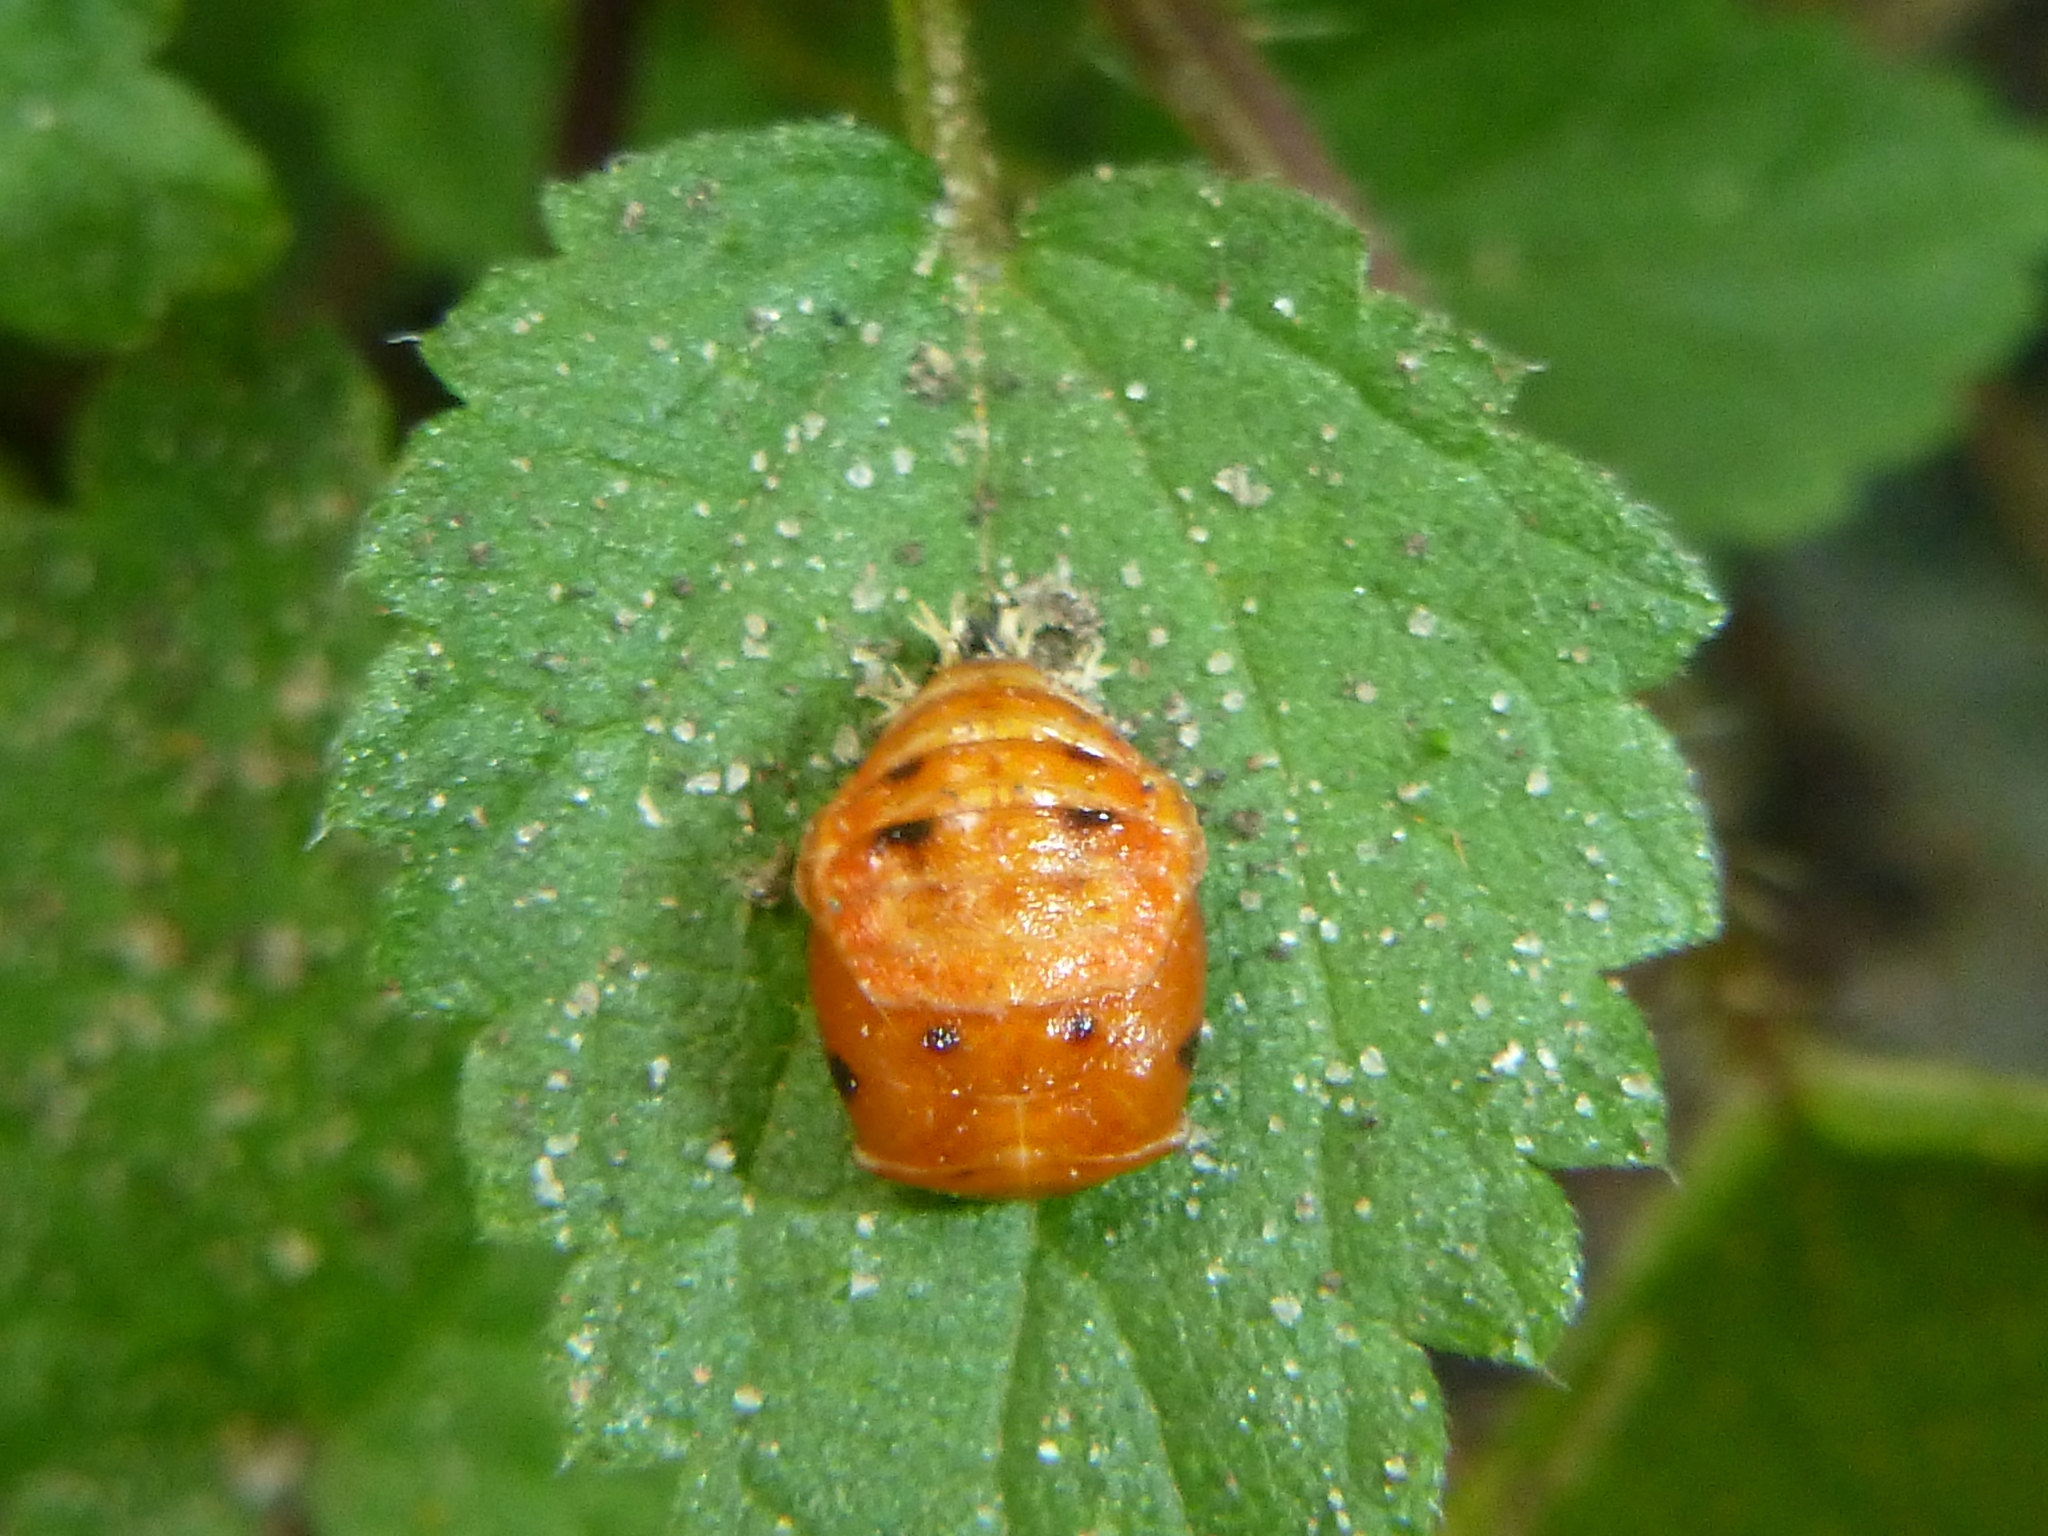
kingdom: Animalia
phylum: Arthropoda
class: Insecta
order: Coleoptera
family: Coccinellidae
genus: Harmonia
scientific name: Harmonia axyridis
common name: Harlequin ladybird
